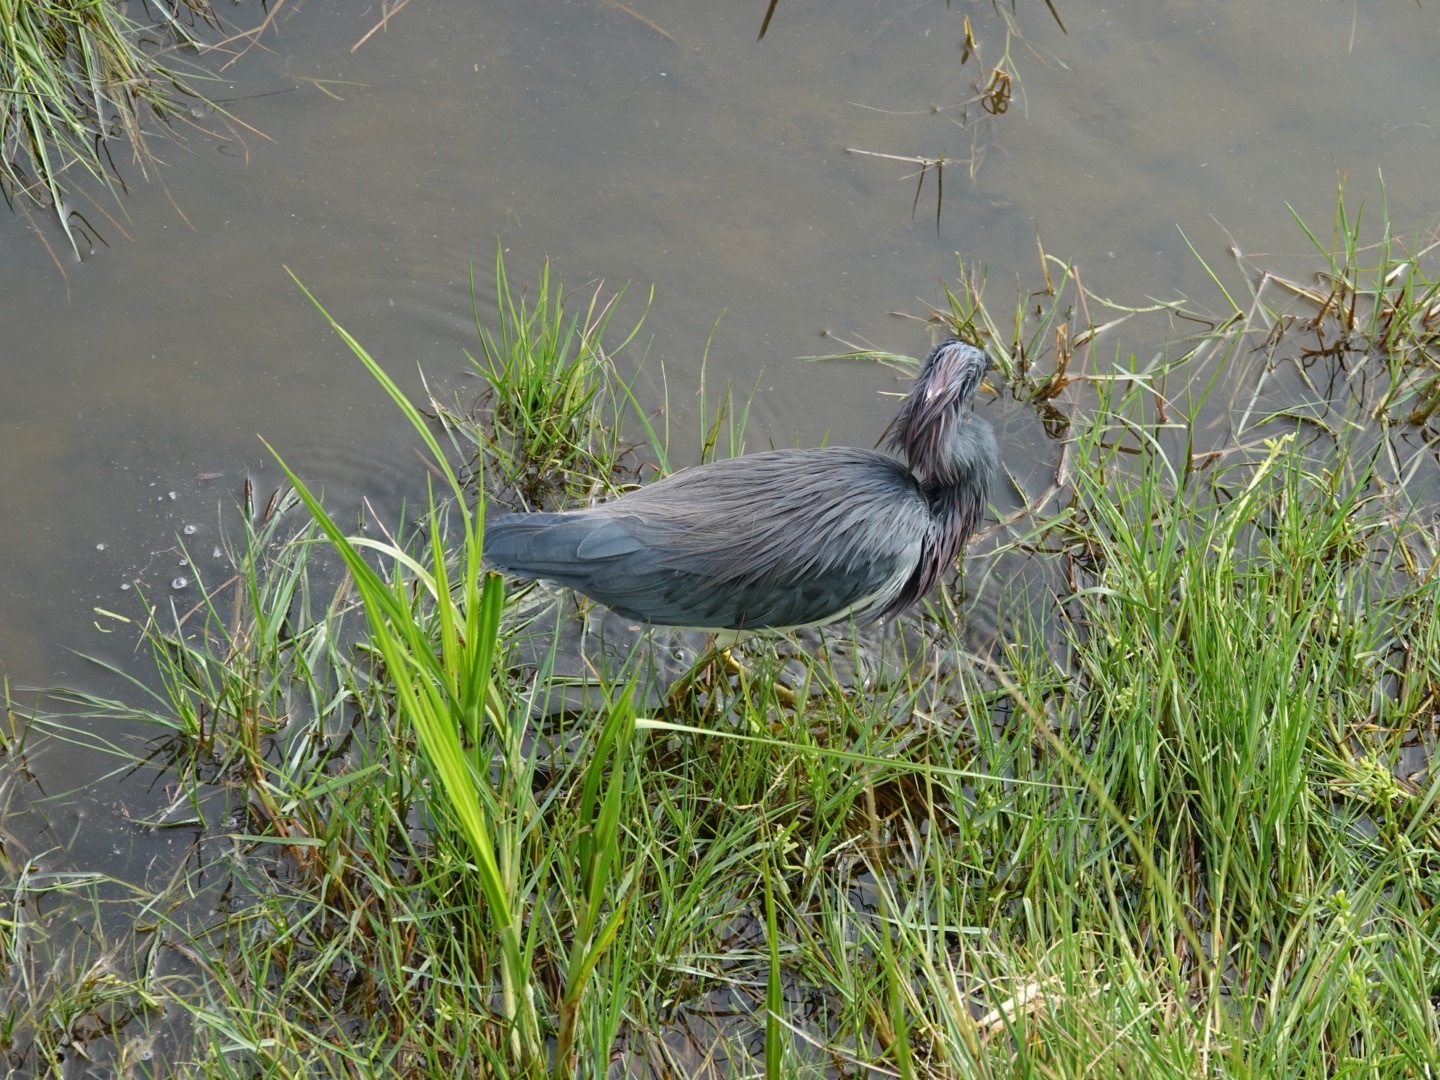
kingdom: Animalia
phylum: Chordata
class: Aves
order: Pelecaniformes
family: Ardeidae
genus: Egretta
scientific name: Egretta tricolor
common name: Tricolored heron
